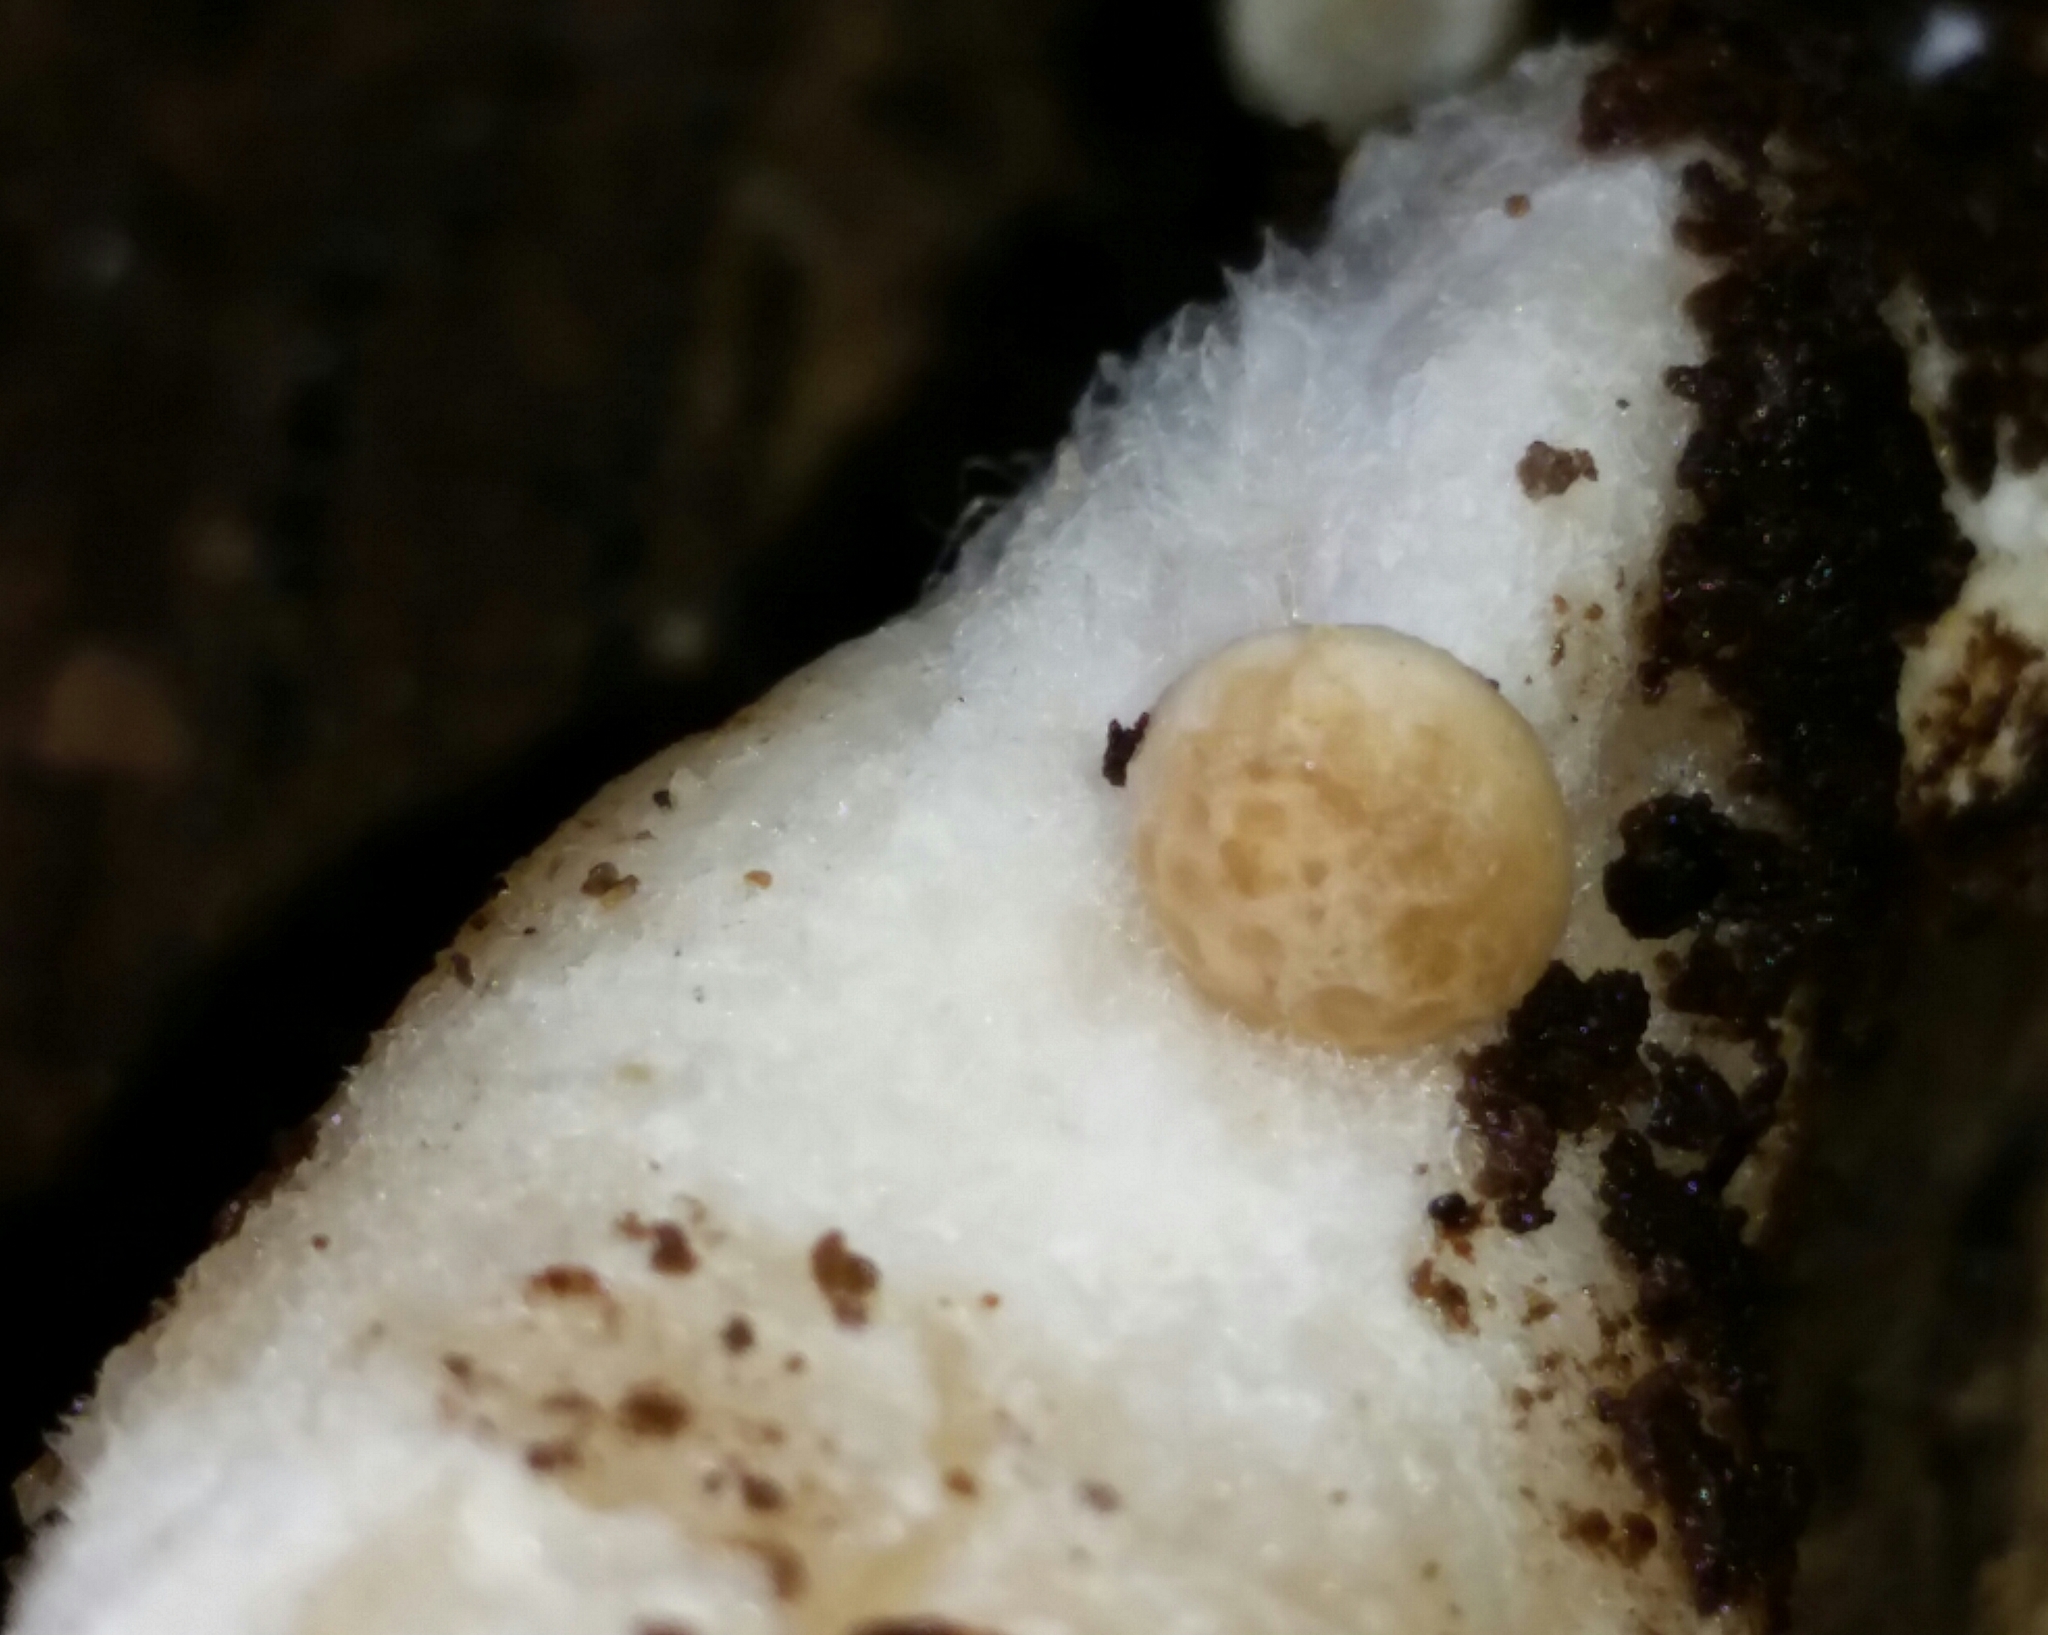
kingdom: Fungi
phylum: Basidiomycota
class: Agaricomycetes
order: Agaricales
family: Lyophyllaceae
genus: Hypsizygus
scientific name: Hypsizygus marmoreus
